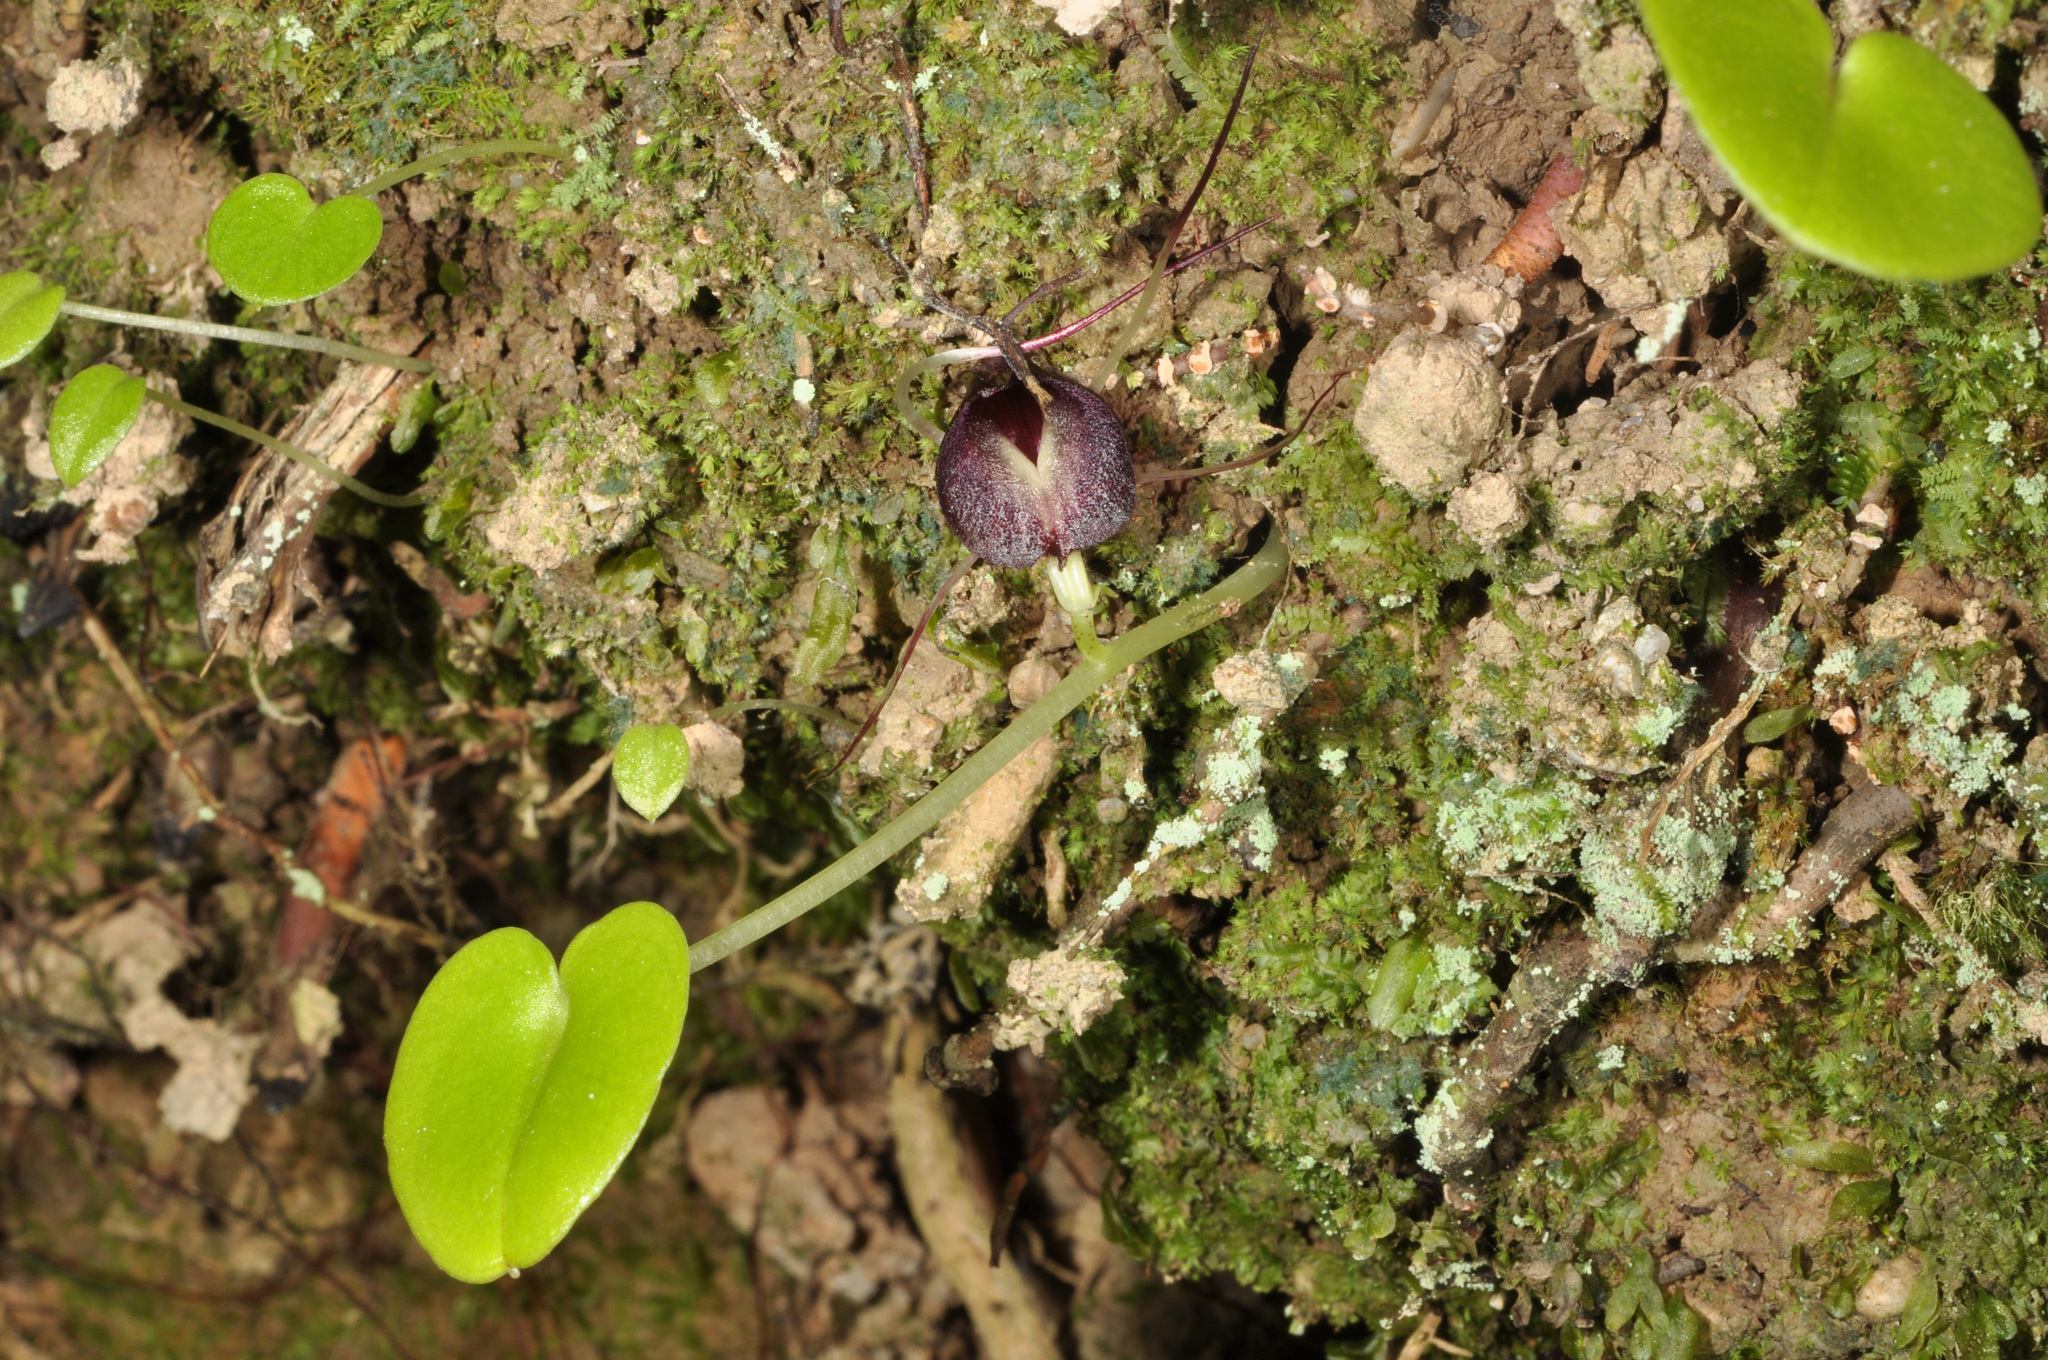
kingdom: Plantae
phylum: Tracheophyta
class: Liliopsida
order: Asparagales
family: Orchidaceae
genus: Corybas
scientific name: Corybas macranthus
